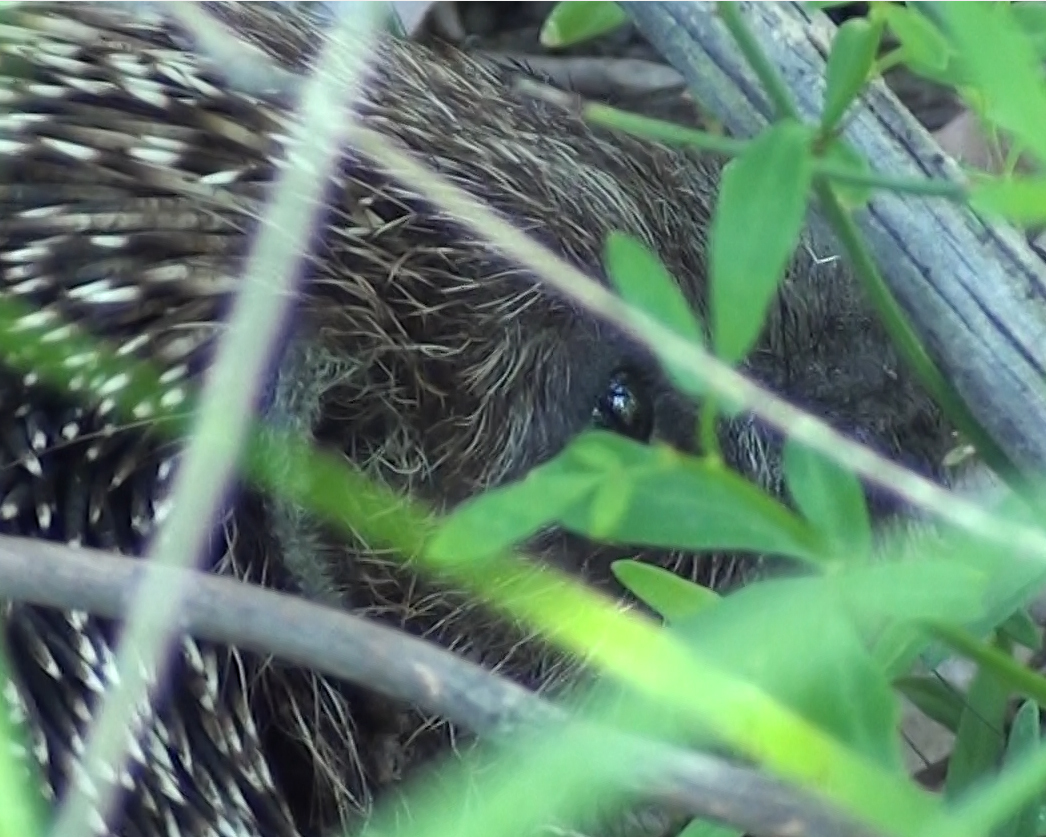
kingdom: Animalia
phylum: Chordata
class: Mammalia
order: Erinaceomorpha
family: Erinaceidae
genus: Erinaceus
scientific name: Erinaceus roumanicus
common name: Northern white-breasted hedgehog
